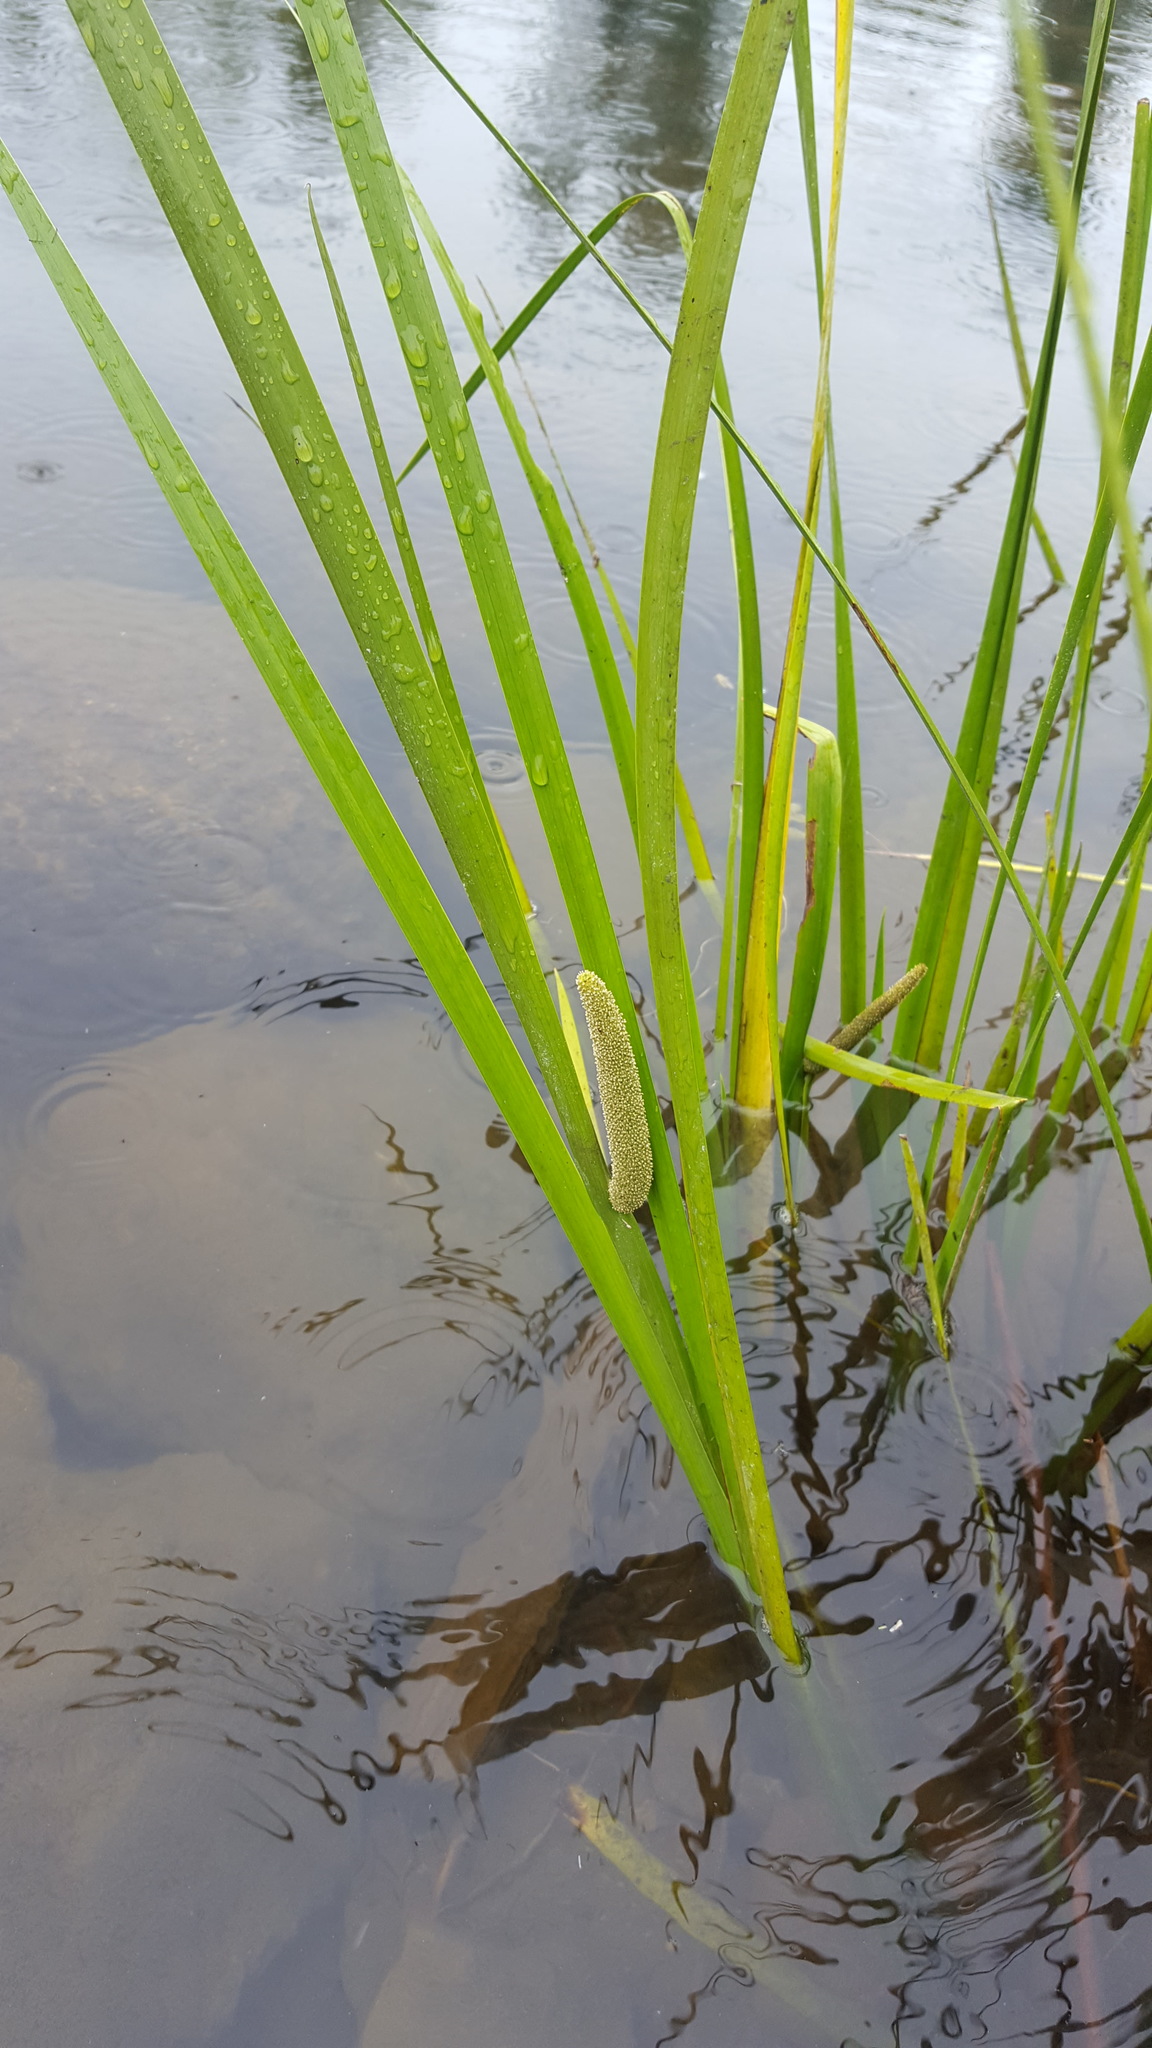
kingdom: Plantae
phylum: Tracheophyta
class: Liliopsida
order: Acorales
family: Acoraceae
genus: Acorus
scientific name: Acorus calamus
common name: Sweet-flag
